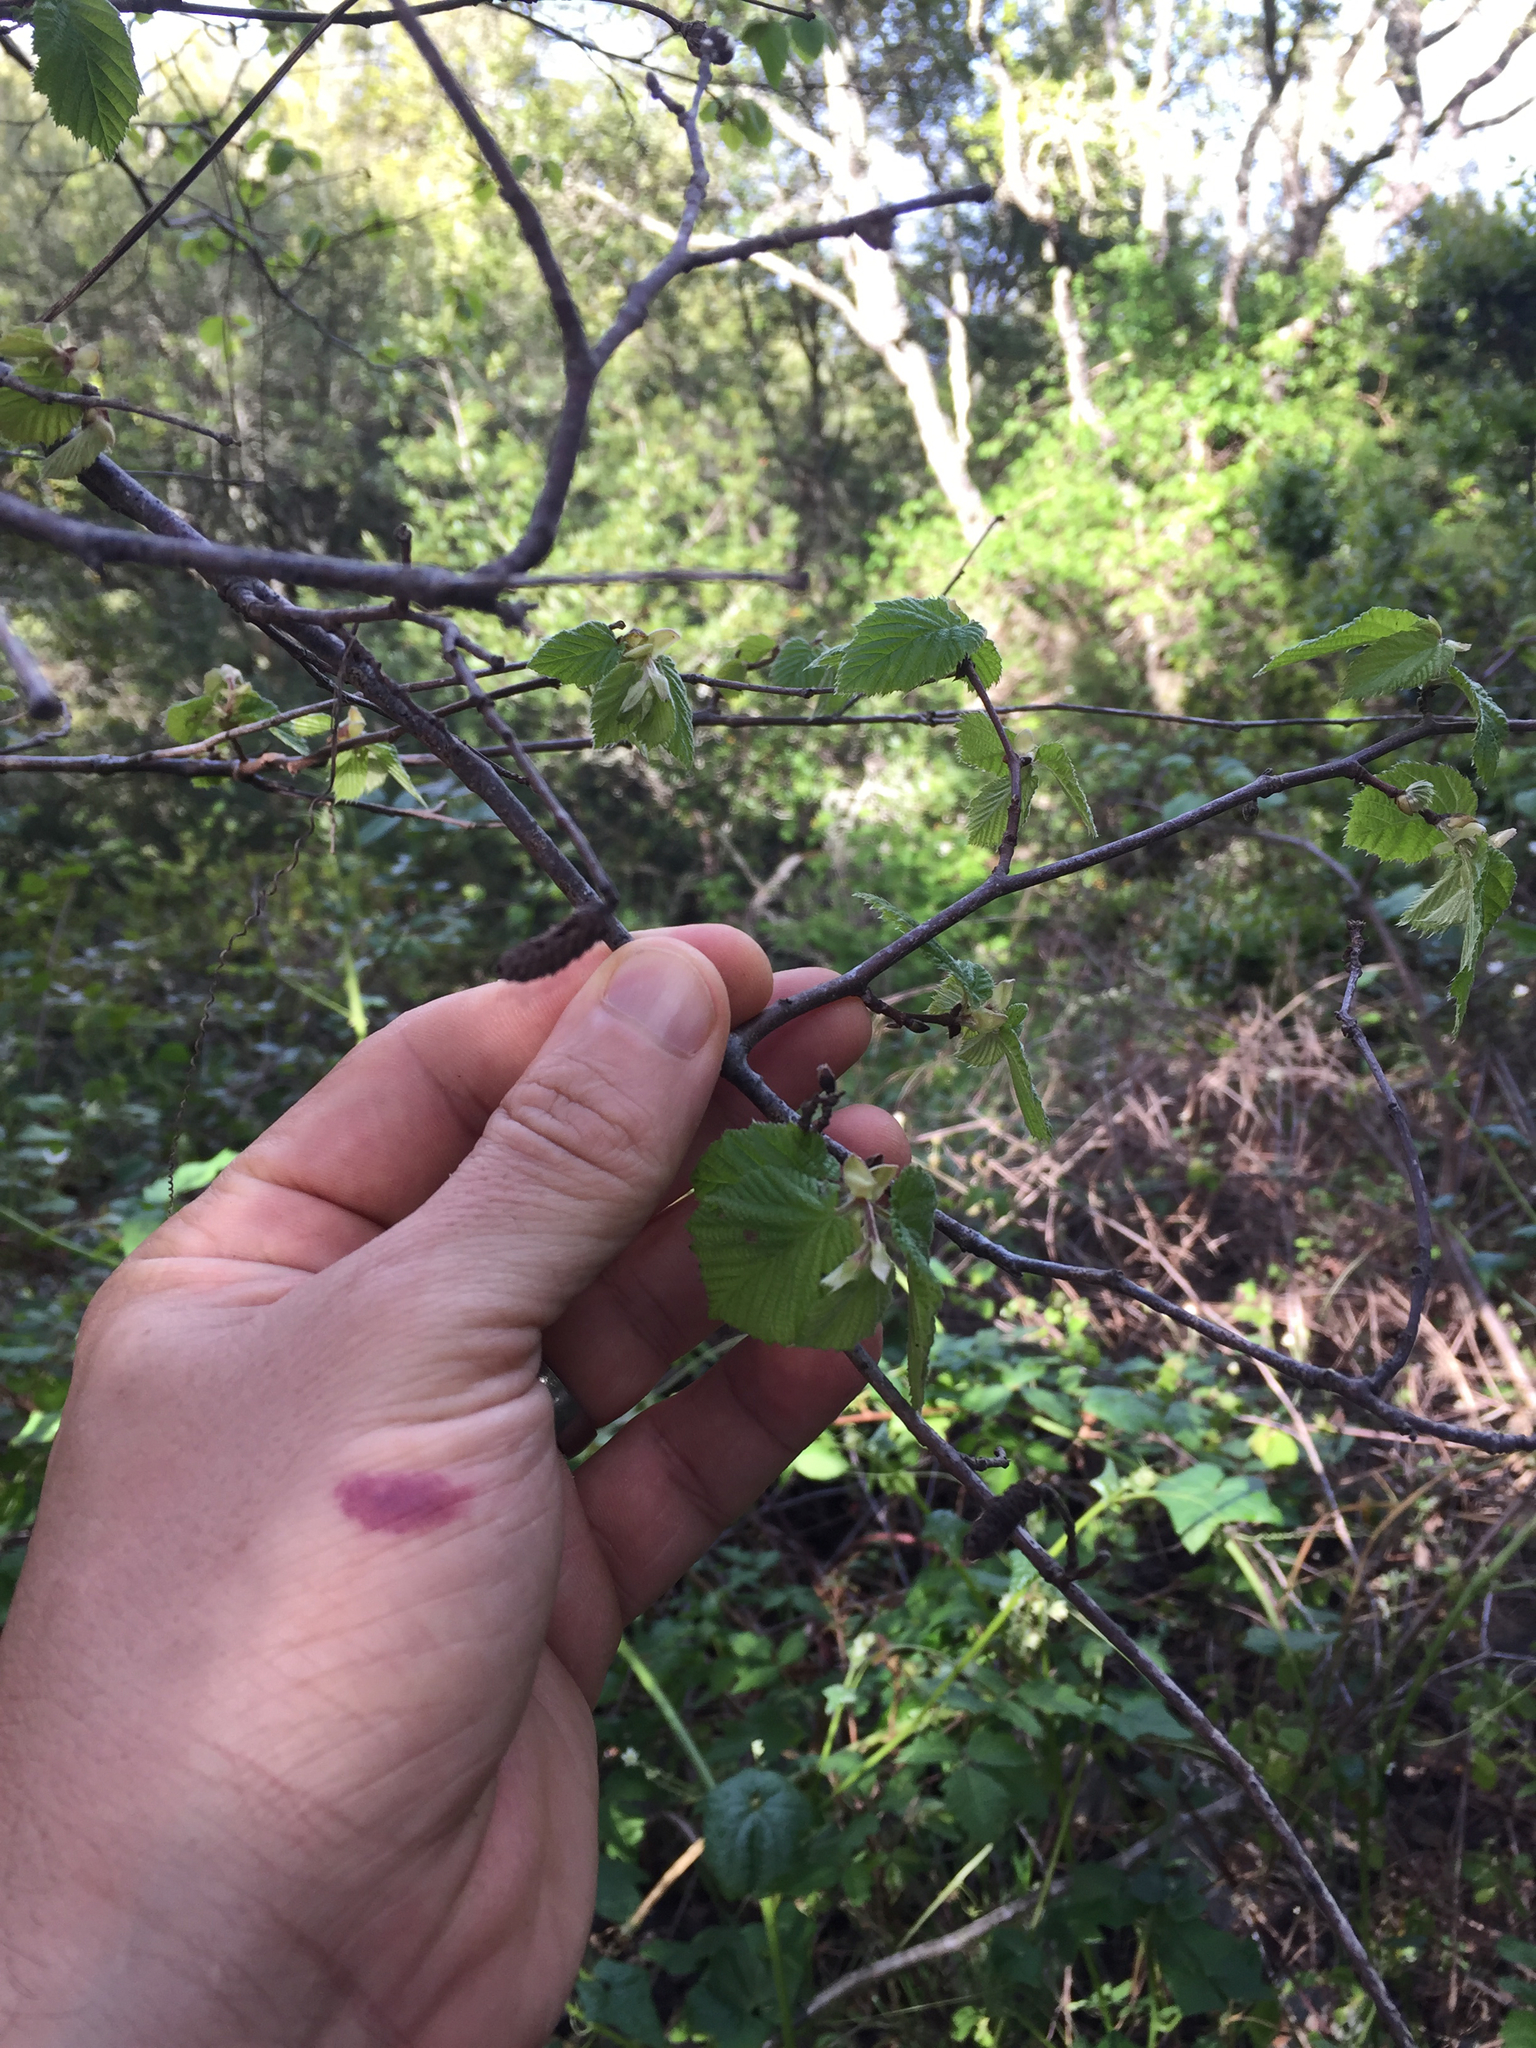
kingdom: Plantae
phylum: Tracheophyta
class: Magnoliopsida
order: Fagales
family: Betulaceae
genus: Corylus
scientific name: Corylus cornuta
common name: Beaked hazel
